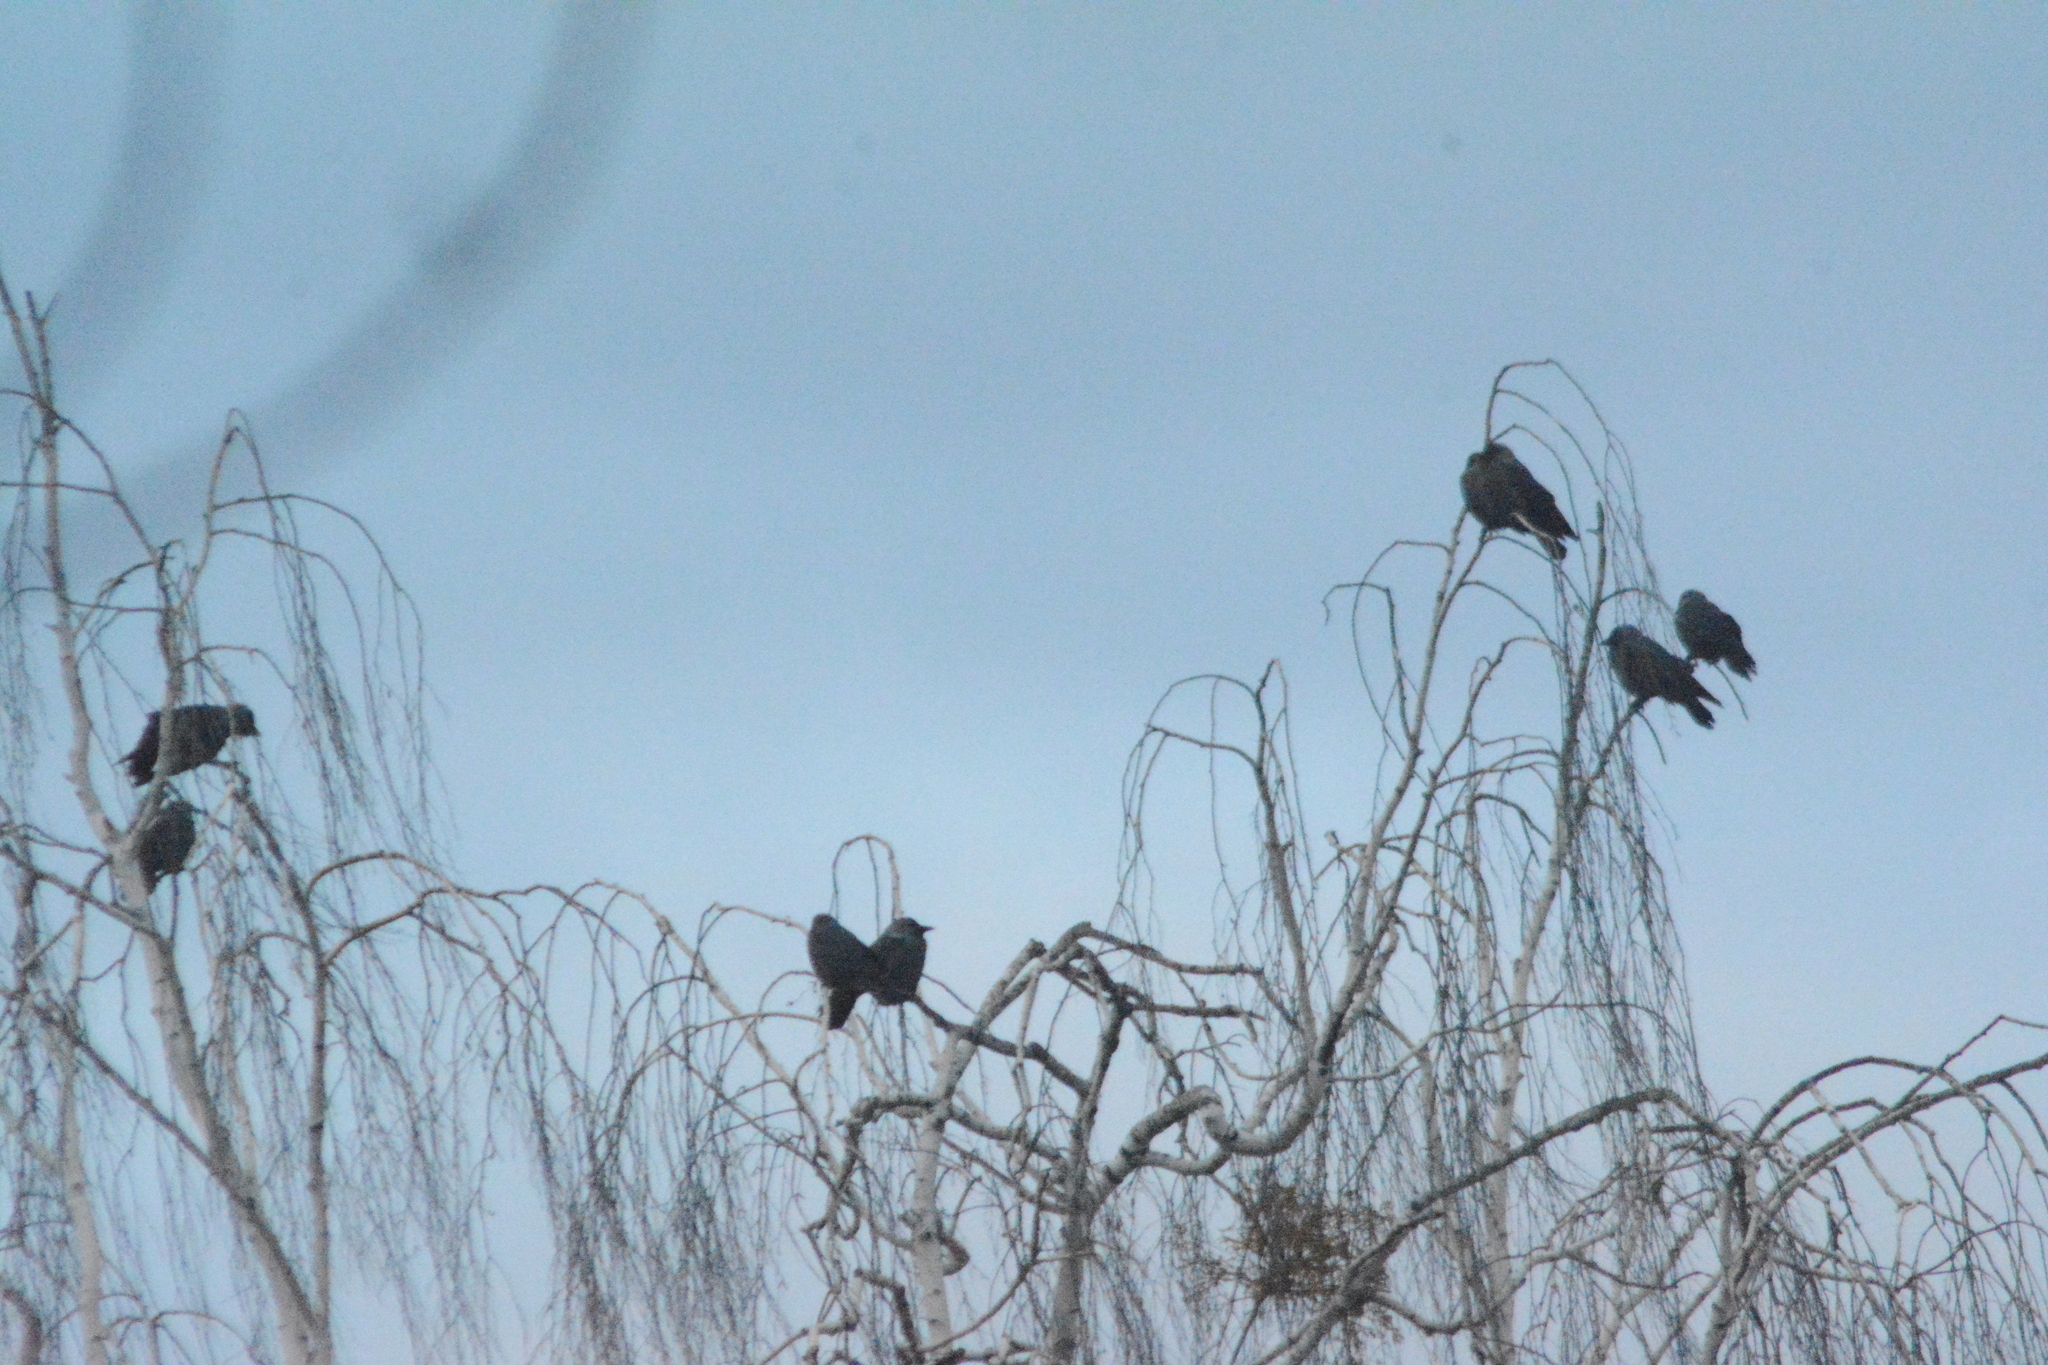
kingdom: Animalia
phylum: Chordata
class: Aves
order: Passeriformes
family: Corvidae
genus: Coloeus
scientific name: Coloeus monedula
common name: Western jackdaw
